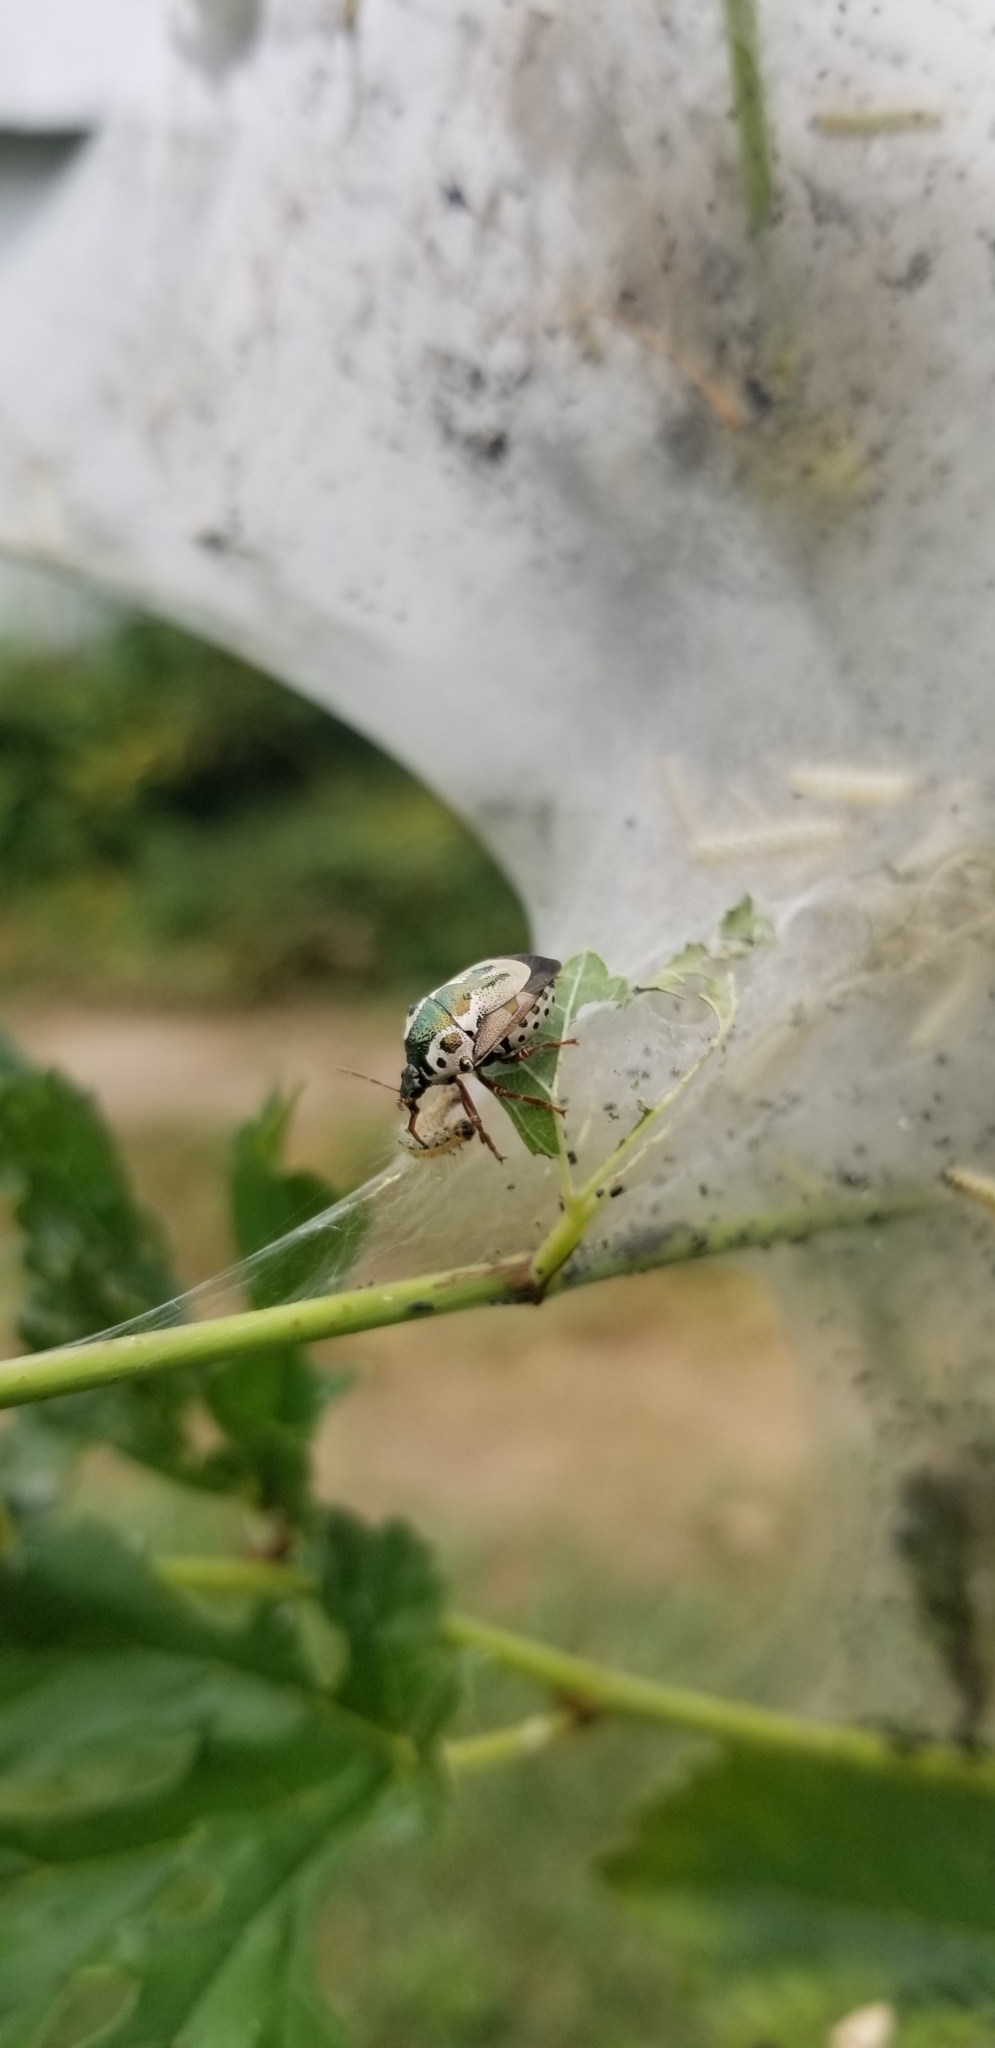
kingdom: Animalia
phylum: Arthropoda
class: Insecta
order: Hemiptera
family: Pentatomidae
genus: Stiretrus
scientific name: Stiretrus anchorago
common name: Anchor stink bug
